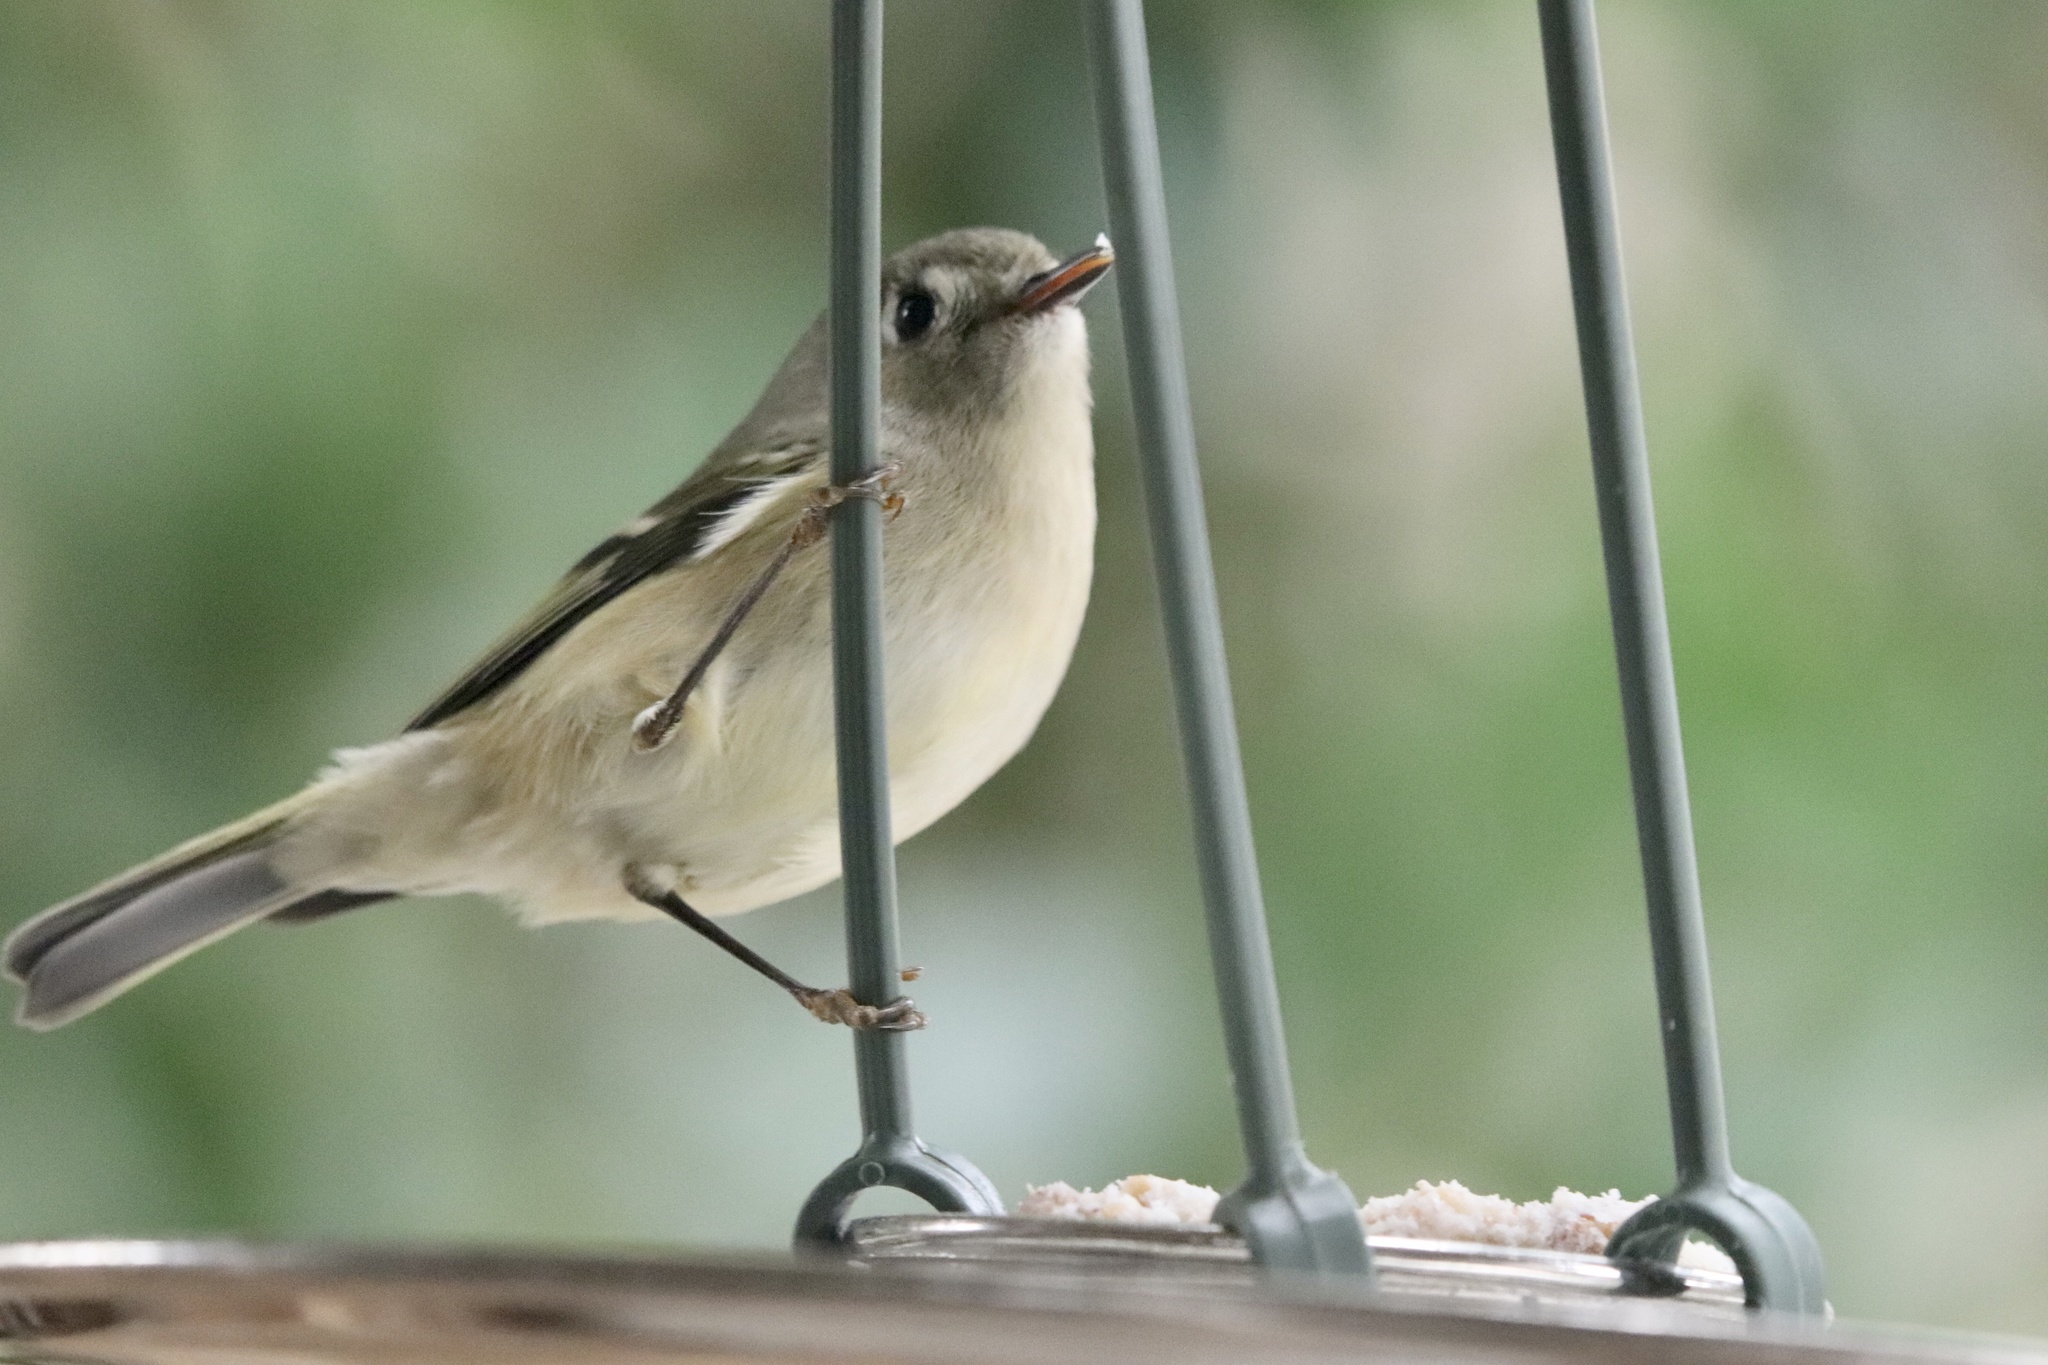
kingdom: Animalia
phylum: Chordata
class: Aves
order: Passeriformes
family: Regulidae
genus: Regulus
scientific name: Regulus calendula
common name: Ruby-crowned kinglet
